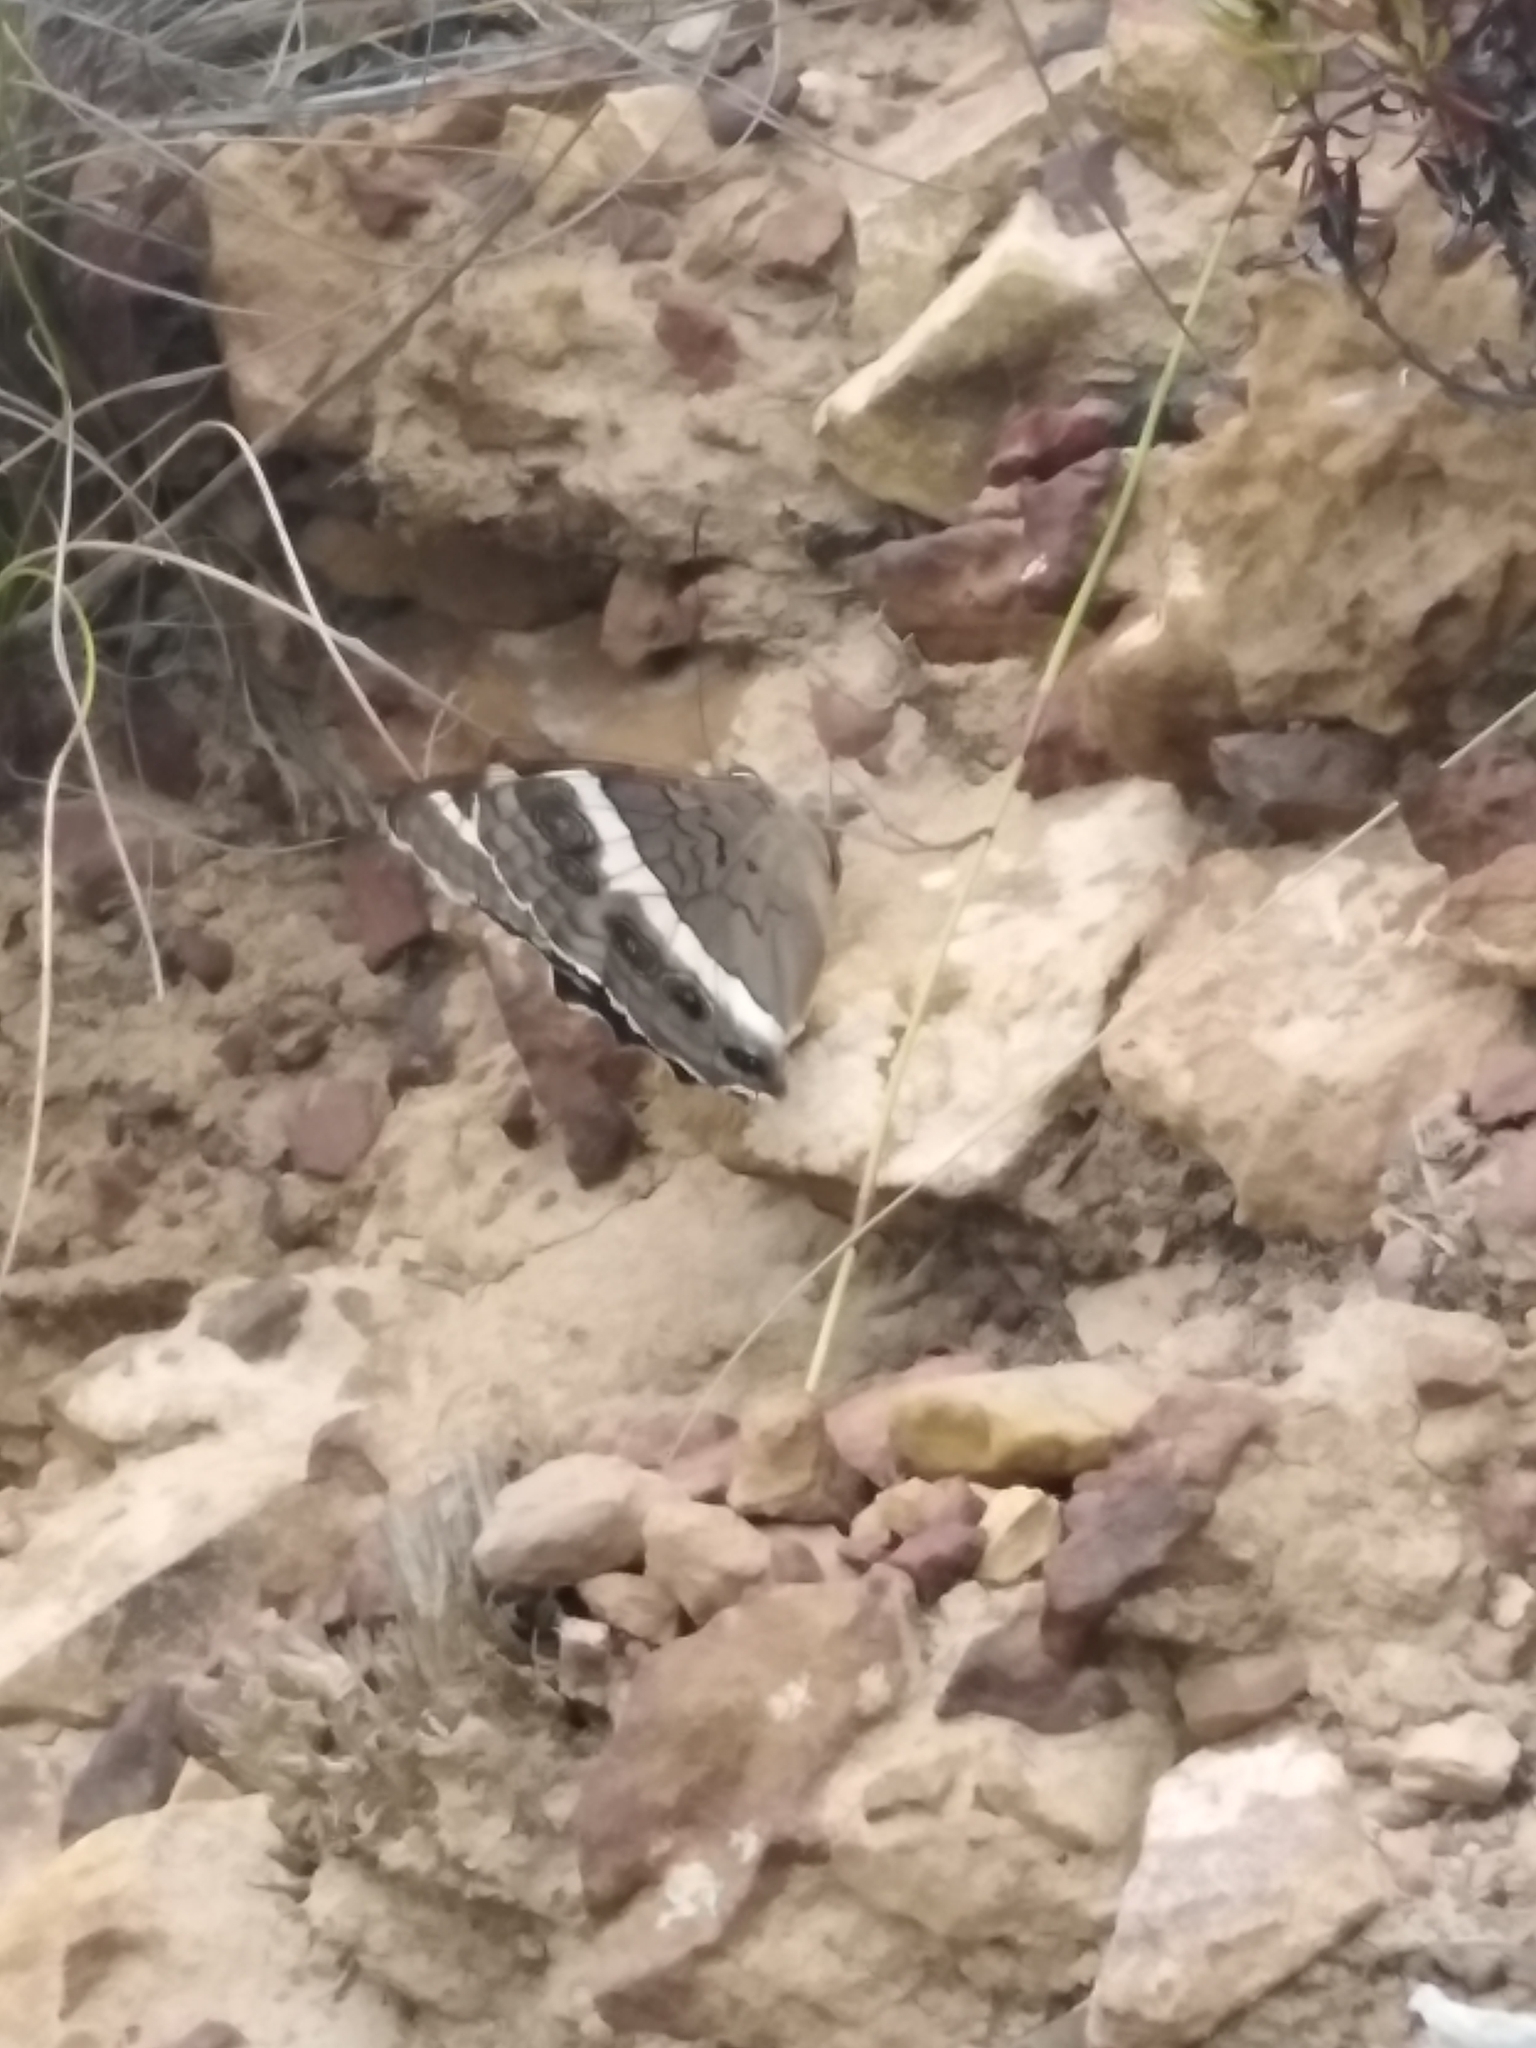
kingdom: Animalia
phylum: Arthropoda
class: Insecta
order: Lepidoptera
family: Nymphalidae
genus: Meneris
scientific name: Meneris Aeropetes tulbaghia
